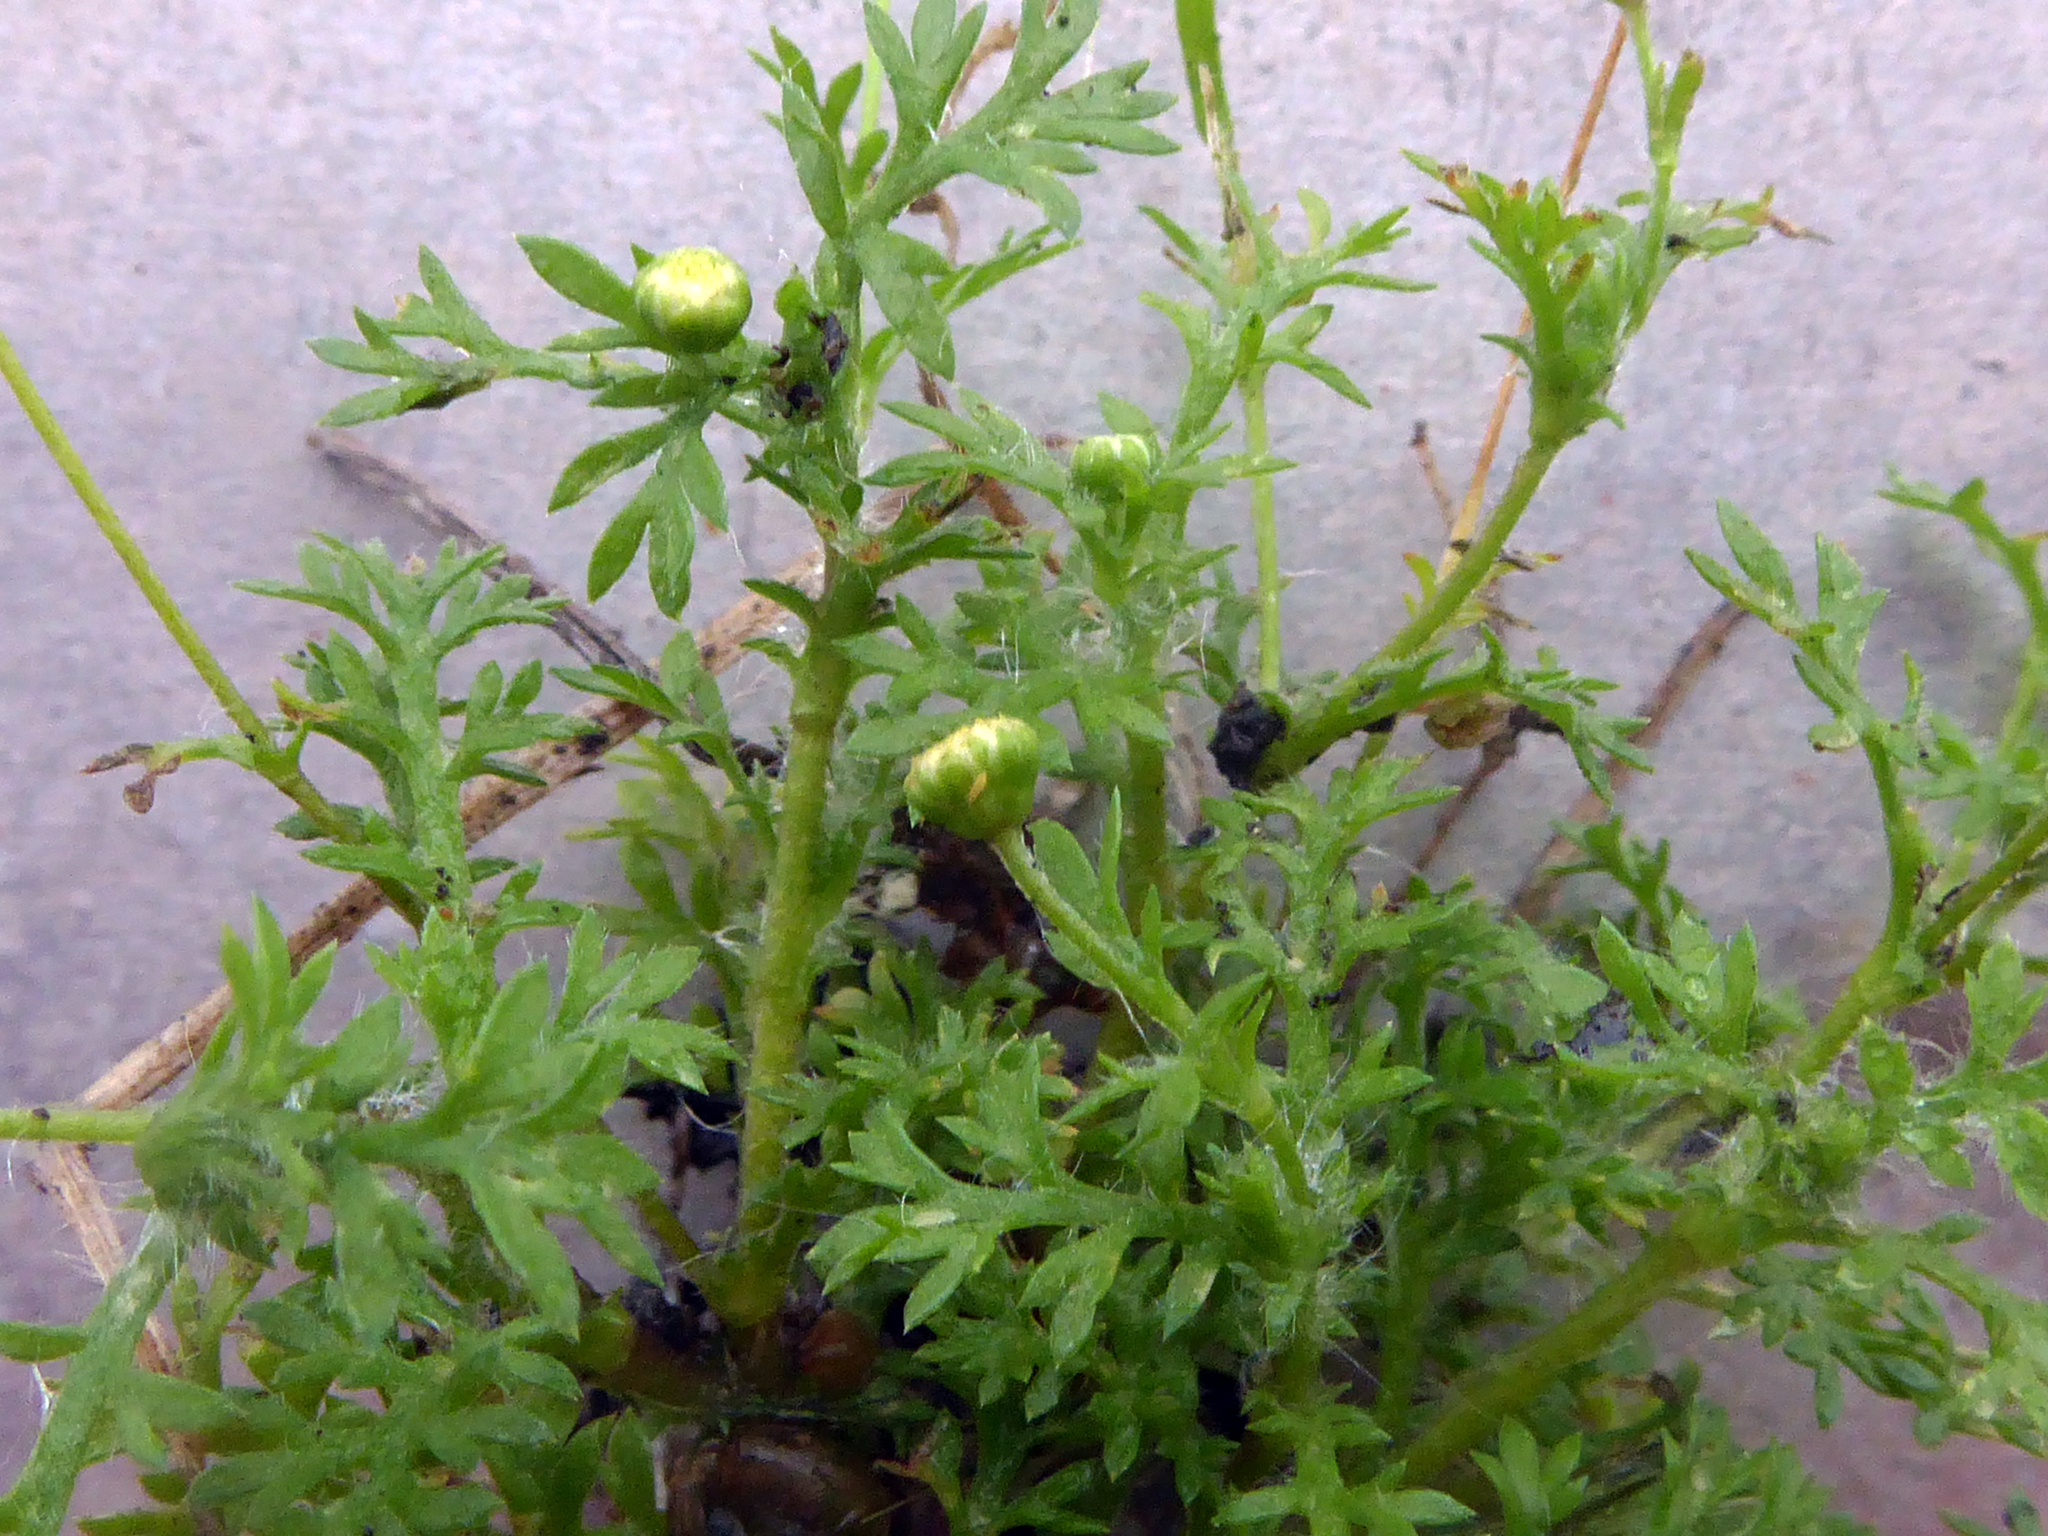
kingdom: Plantae
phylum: Tracheophyta
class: Magnoliopsida
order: Asterales
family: Asteraceae
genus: Cotula
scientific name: Cotula australis
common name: Australian waterbuttons
